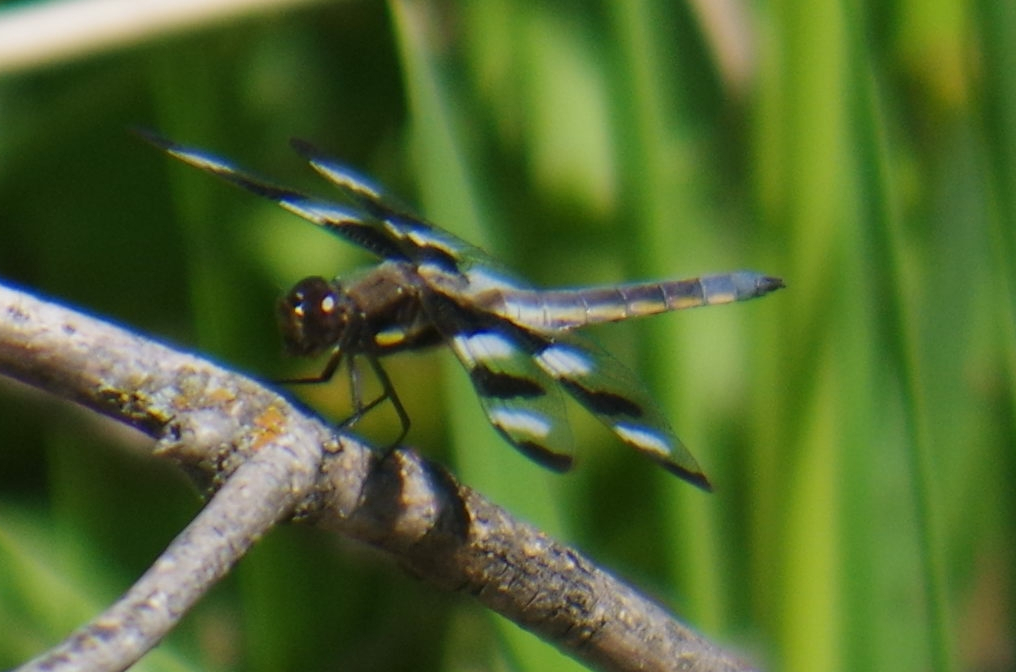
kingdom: Animalia
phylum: Arthropoda
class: Insecta
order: Odonata
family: Libellulidae
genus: Libellula
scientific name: Libellula pulchella
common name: Twelve-spotted skimmer
